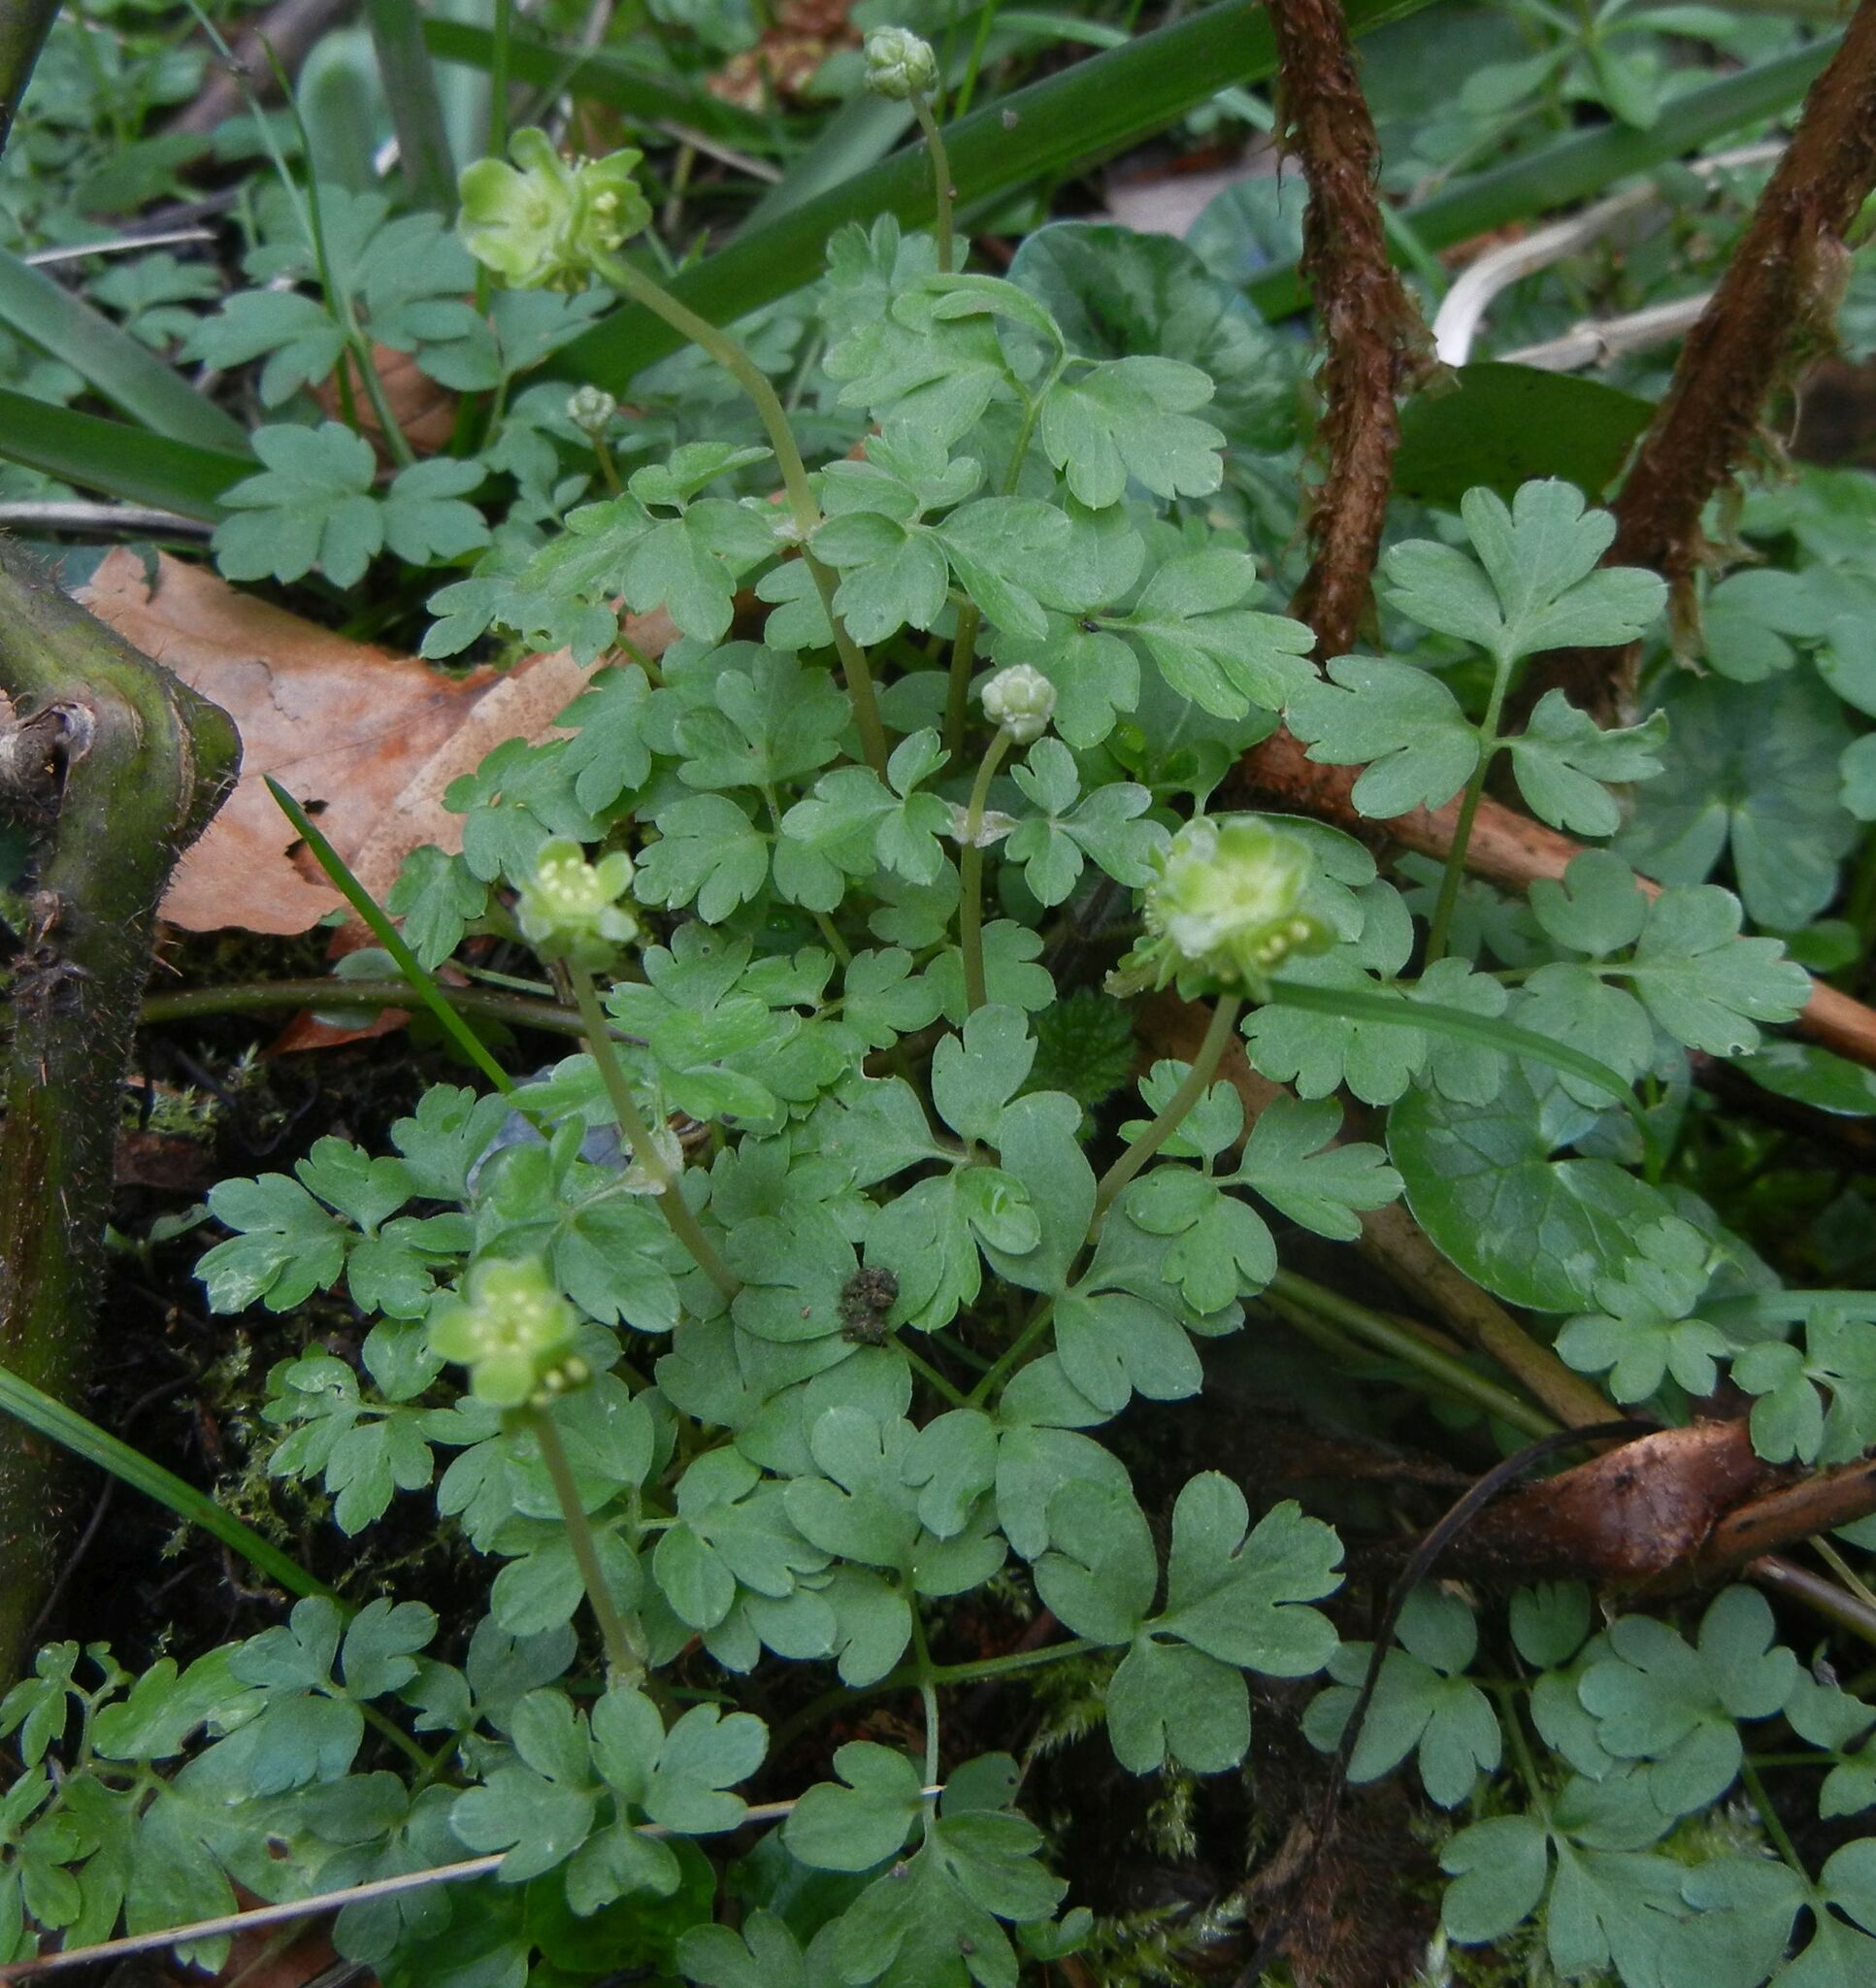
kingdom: Plantae
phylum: Tracheophyta
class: Magnoliopsida
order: Dipsacales
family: Viburnaceae
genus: Adoxa
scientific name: Adoxa moschatellina
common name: Moschatel
